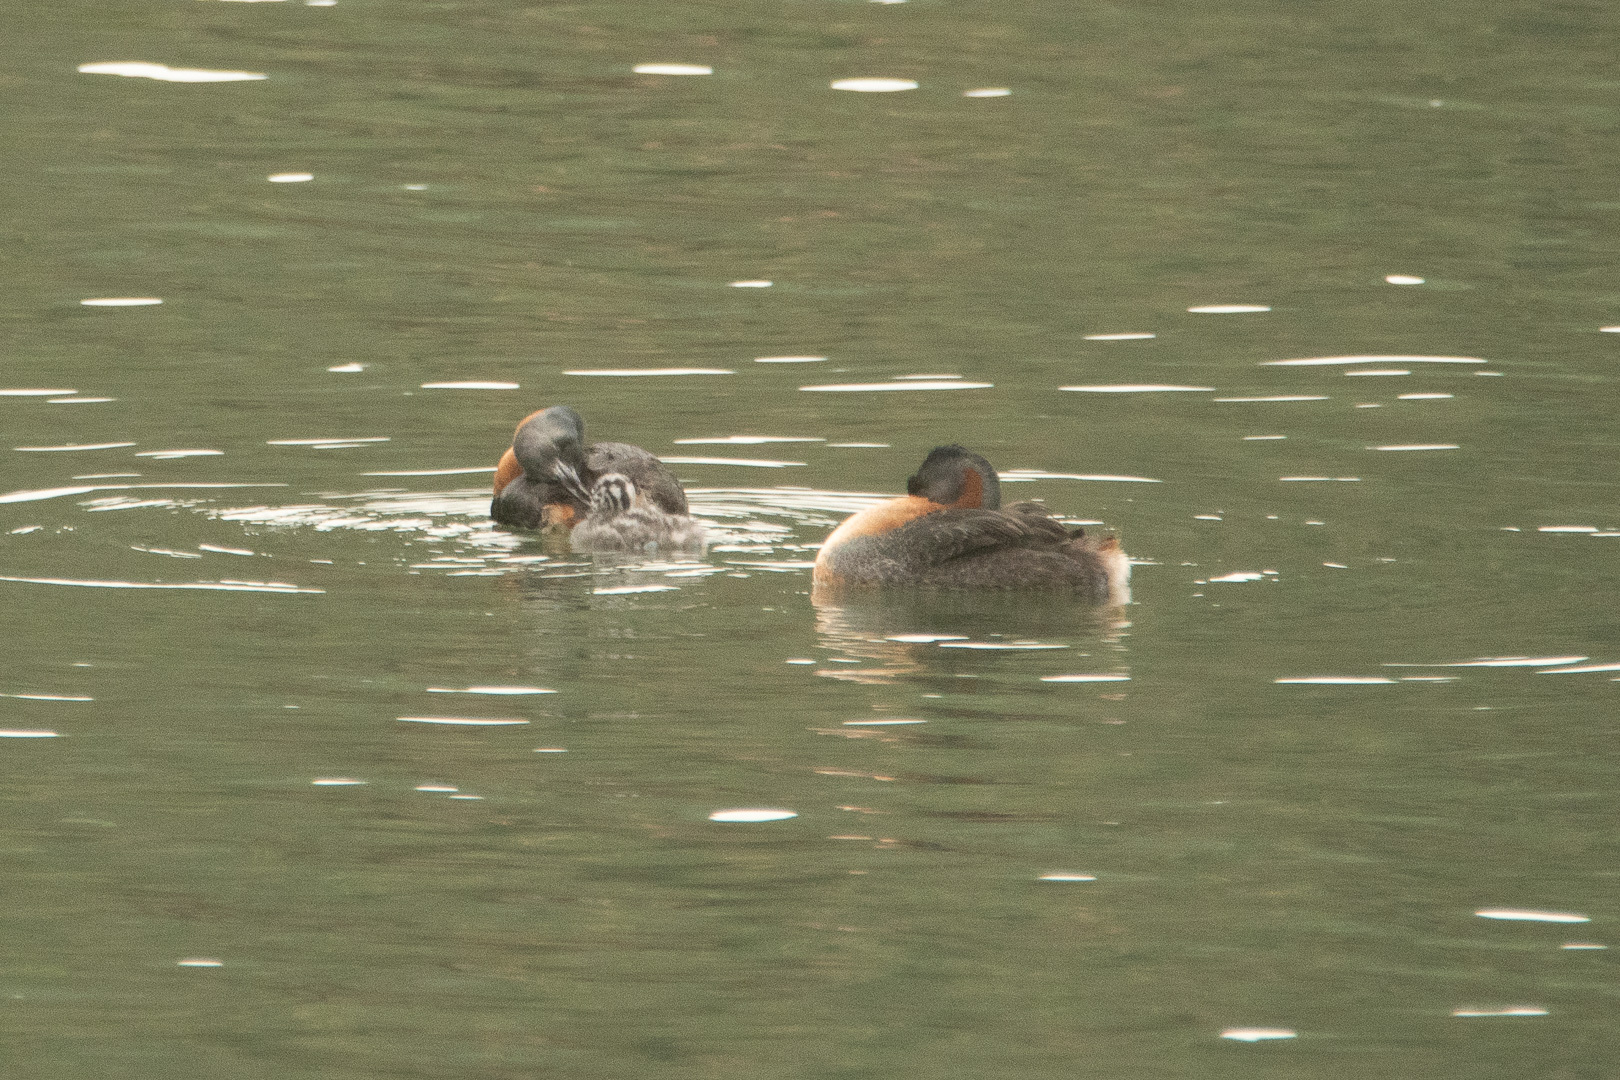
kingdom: Animalia
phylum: Chordata
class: Aves
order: Podicipediformes
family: Podicipedidae
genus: Podiceps
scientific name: Podiceps major
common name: Great grebe
